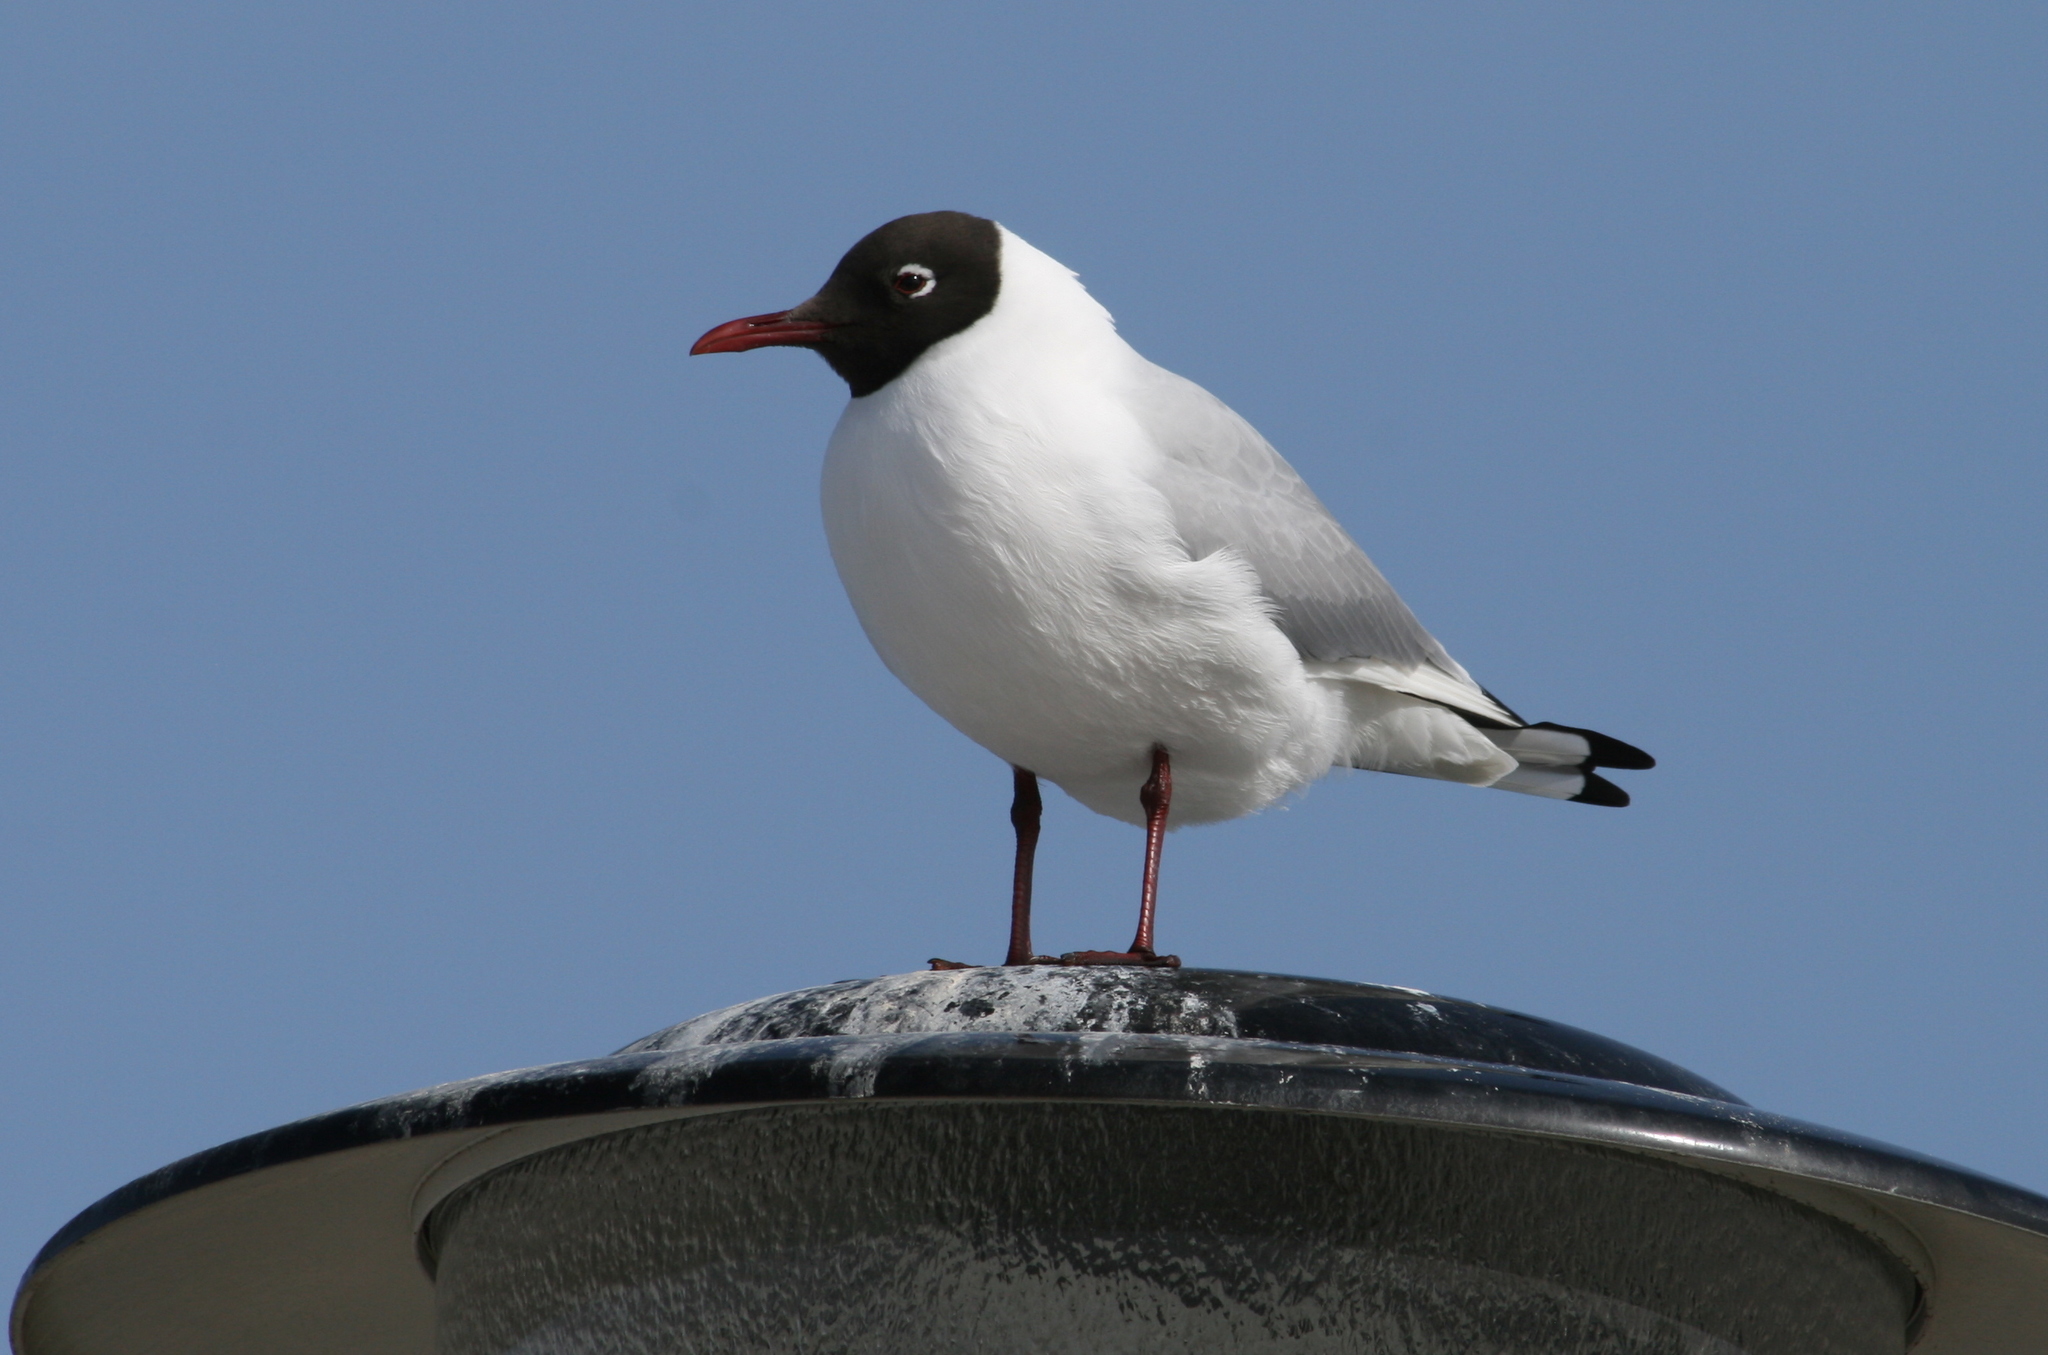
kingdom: Animalia
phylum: Chordata
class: Aves
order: Charadriiformes
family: Laridae
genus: Chroicocephalus
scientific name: Chroicocephalus ridibundus
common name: Black-headed gull
